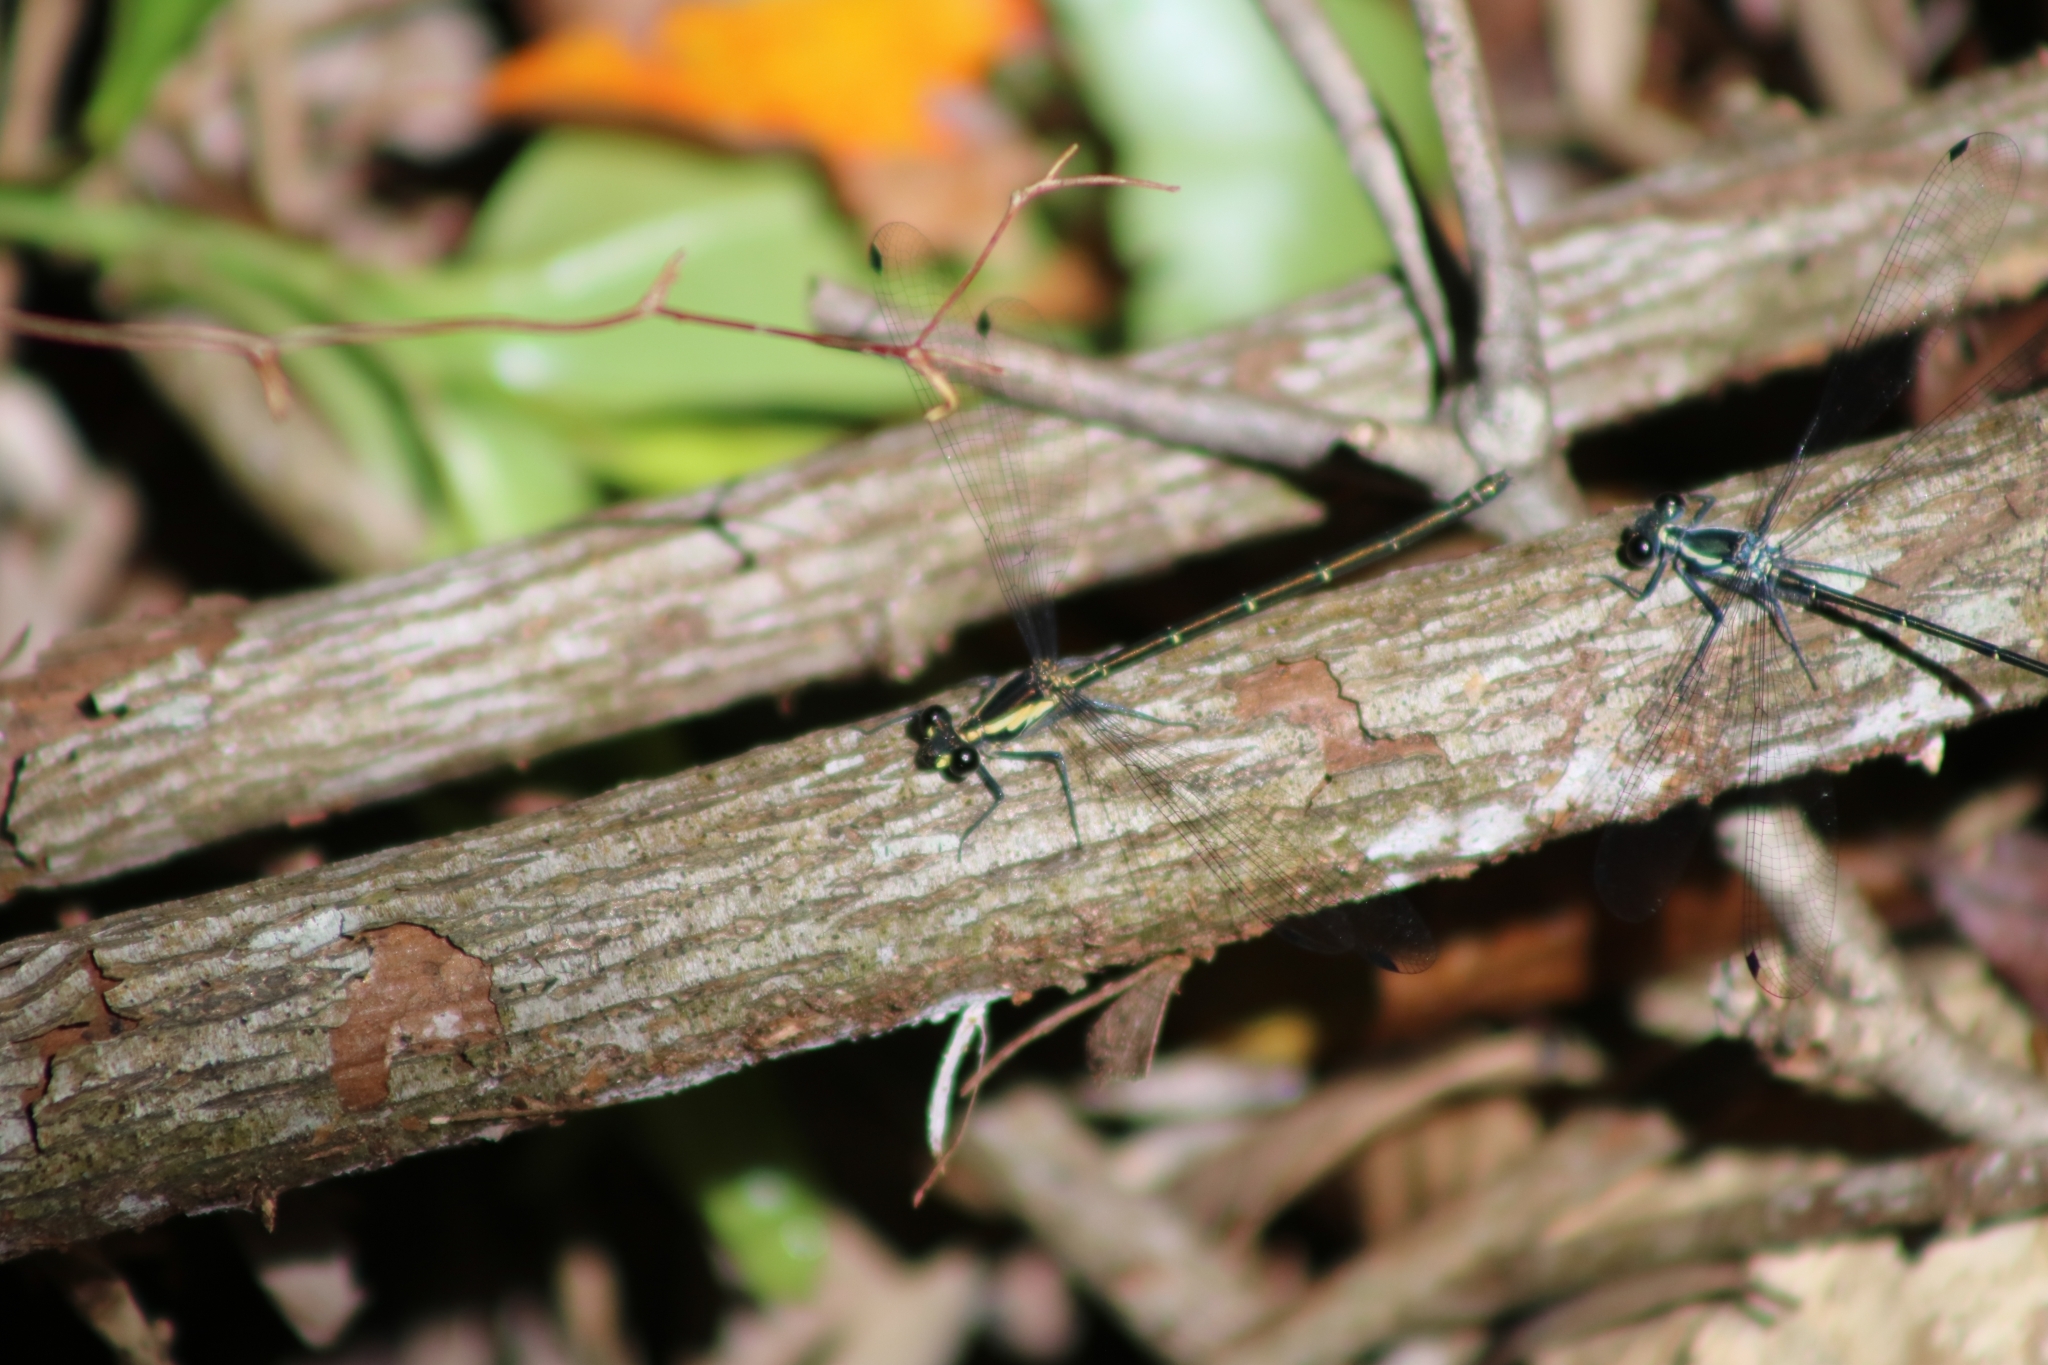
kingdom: Animalia
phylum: Arthropoda
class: Insecta
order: Odonata
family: Argiolestidae
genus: Austroargiolestes
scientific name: Austroargiolestes icteromelas
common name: Common flatwing
